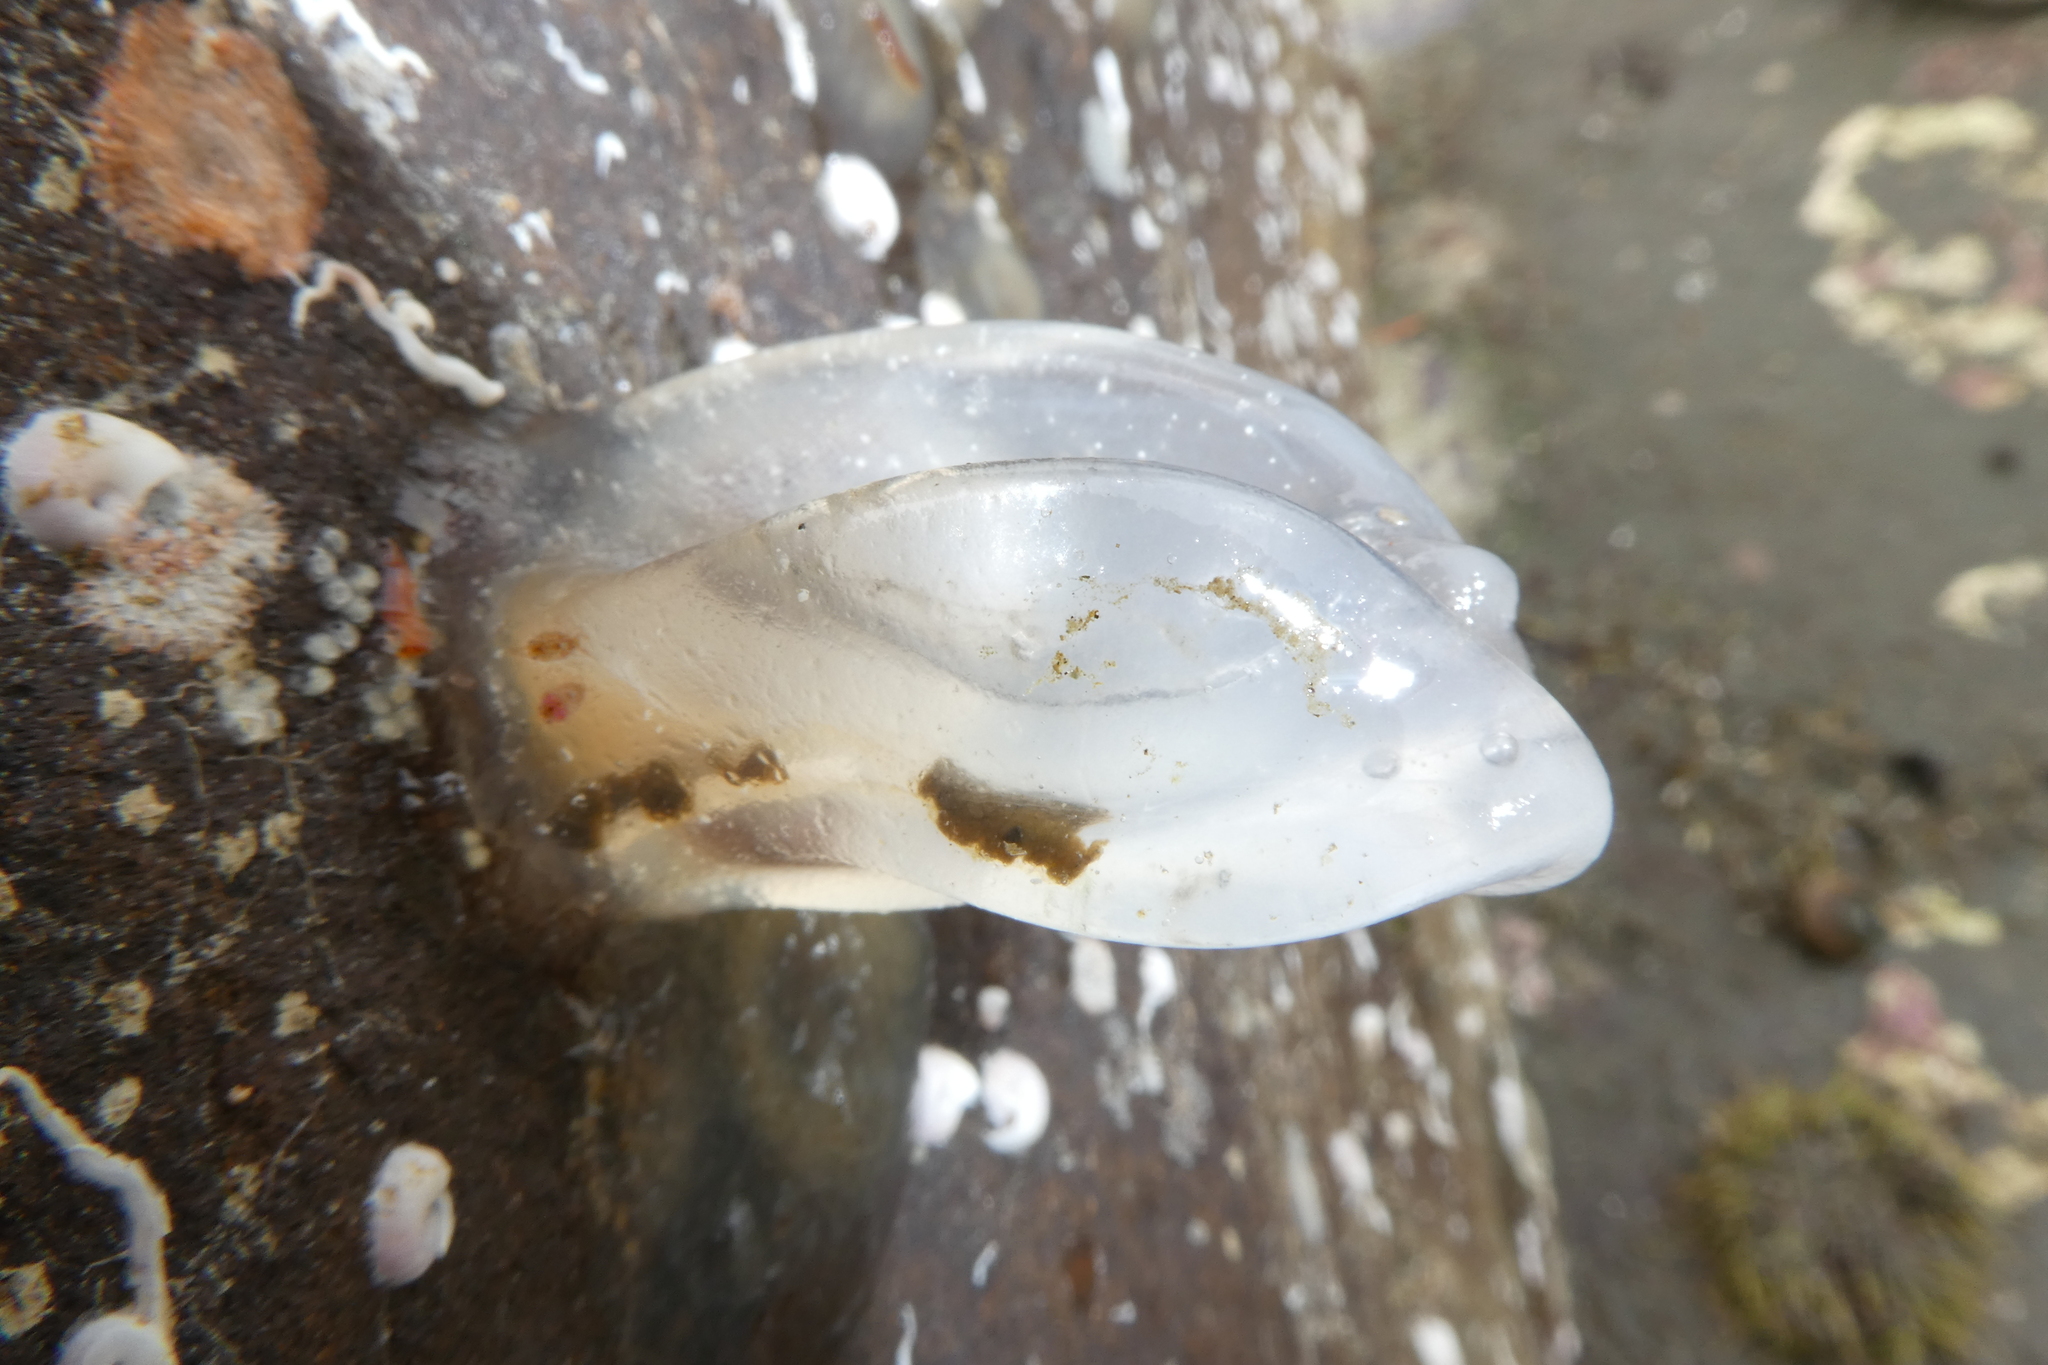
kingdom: Animalia
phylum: Chordata
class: Ascidiacea
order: Phlebobranchia
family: Corellidae
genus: Corella
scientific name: Corella willmeriana
